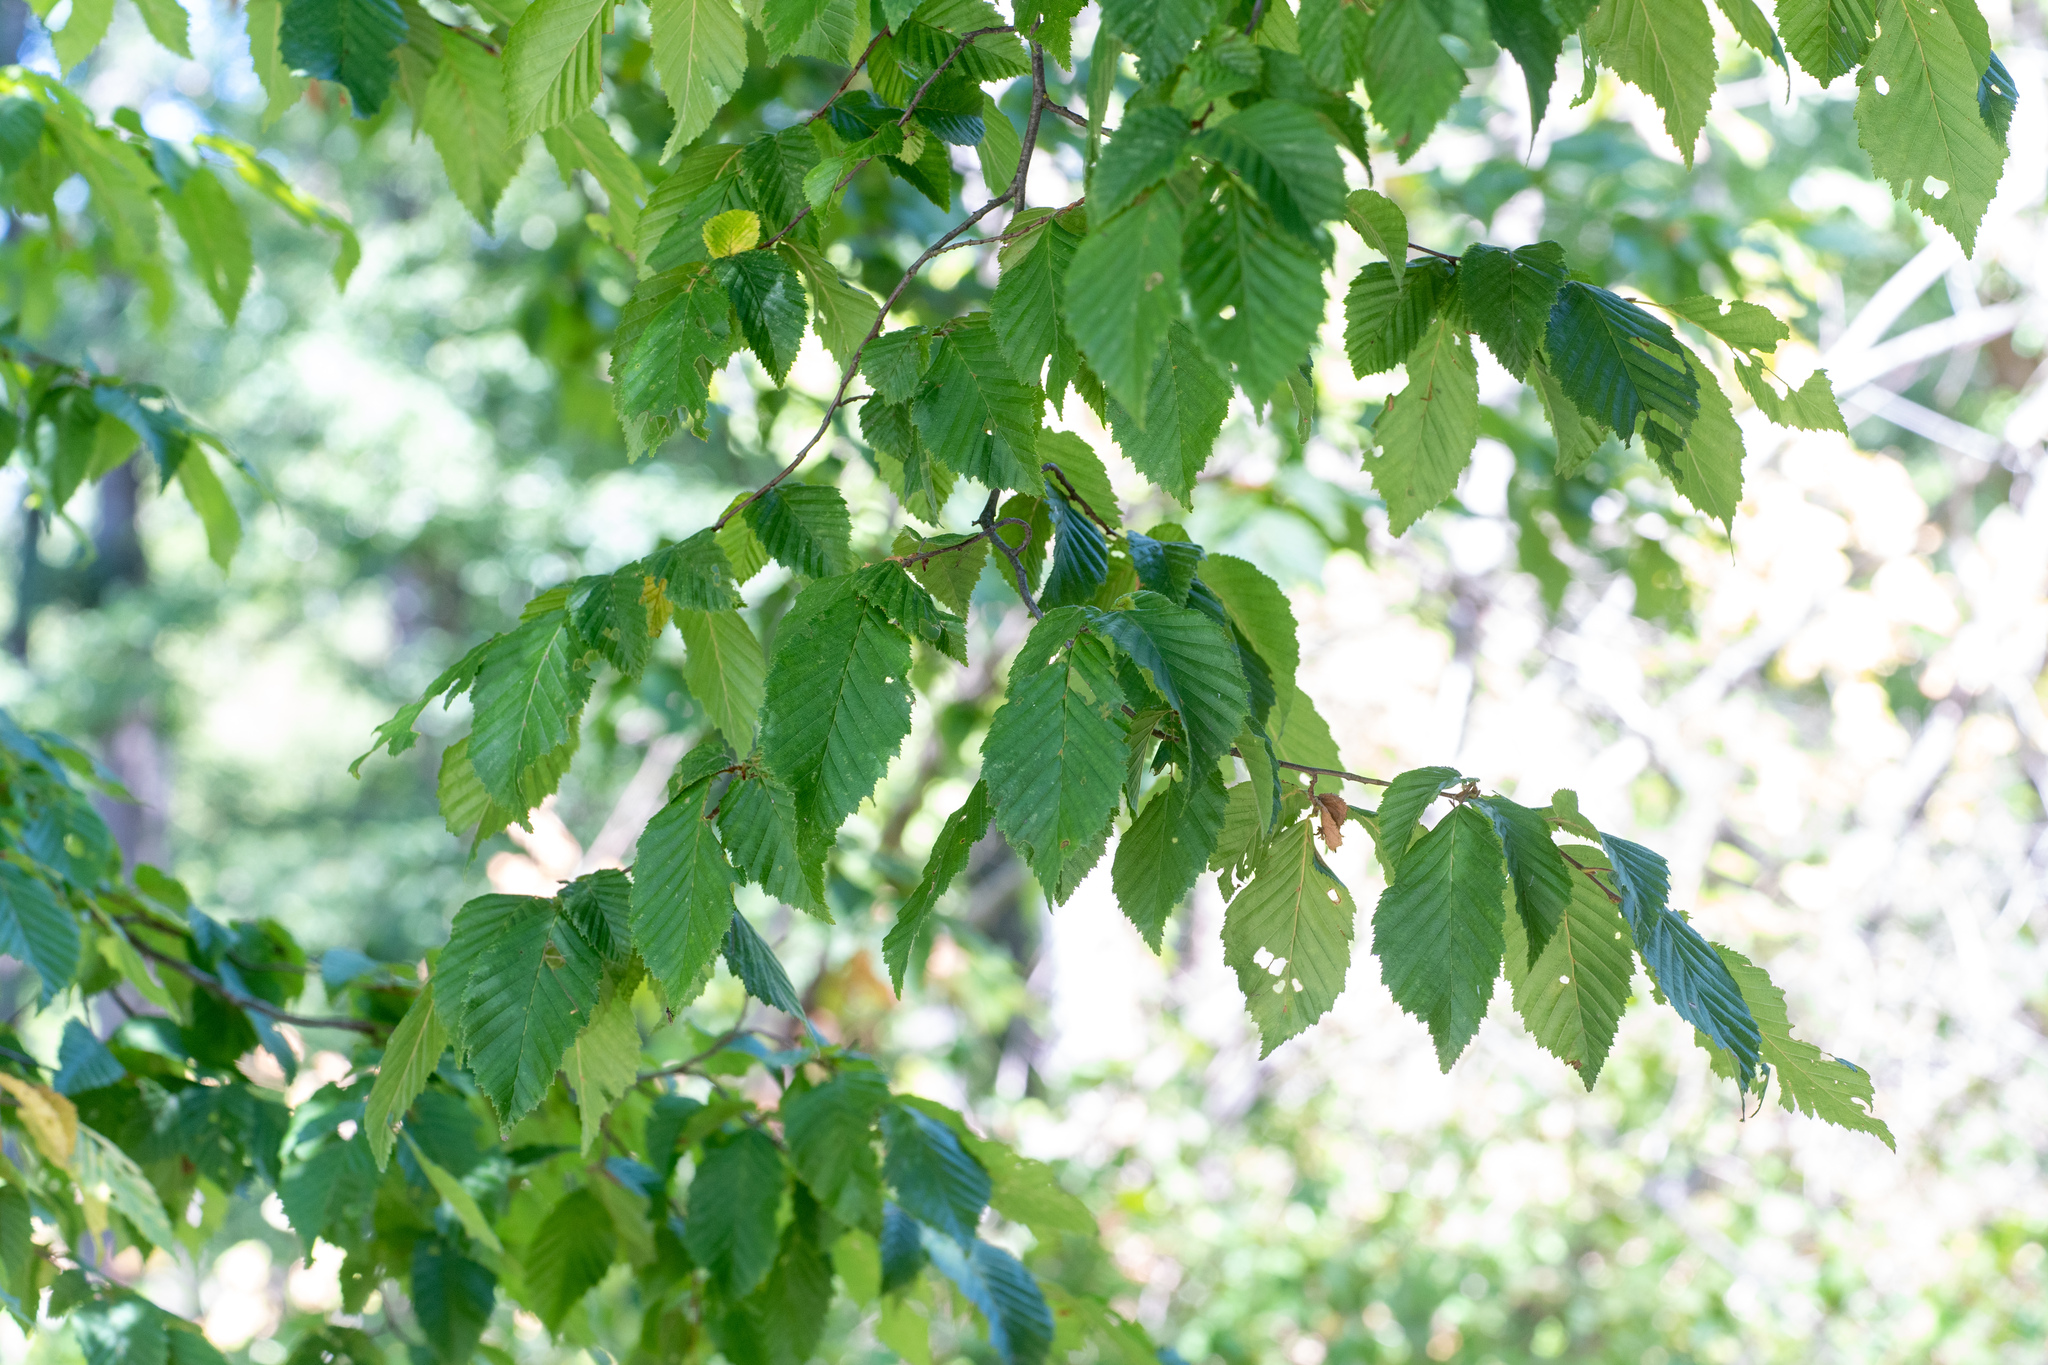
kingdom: Plantae
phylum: Tracheophyta
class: Magnoliopsida
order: Fagales
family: Betulaceae
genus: Carpinus
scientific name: Carpinus betulus
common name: Hornbeam
